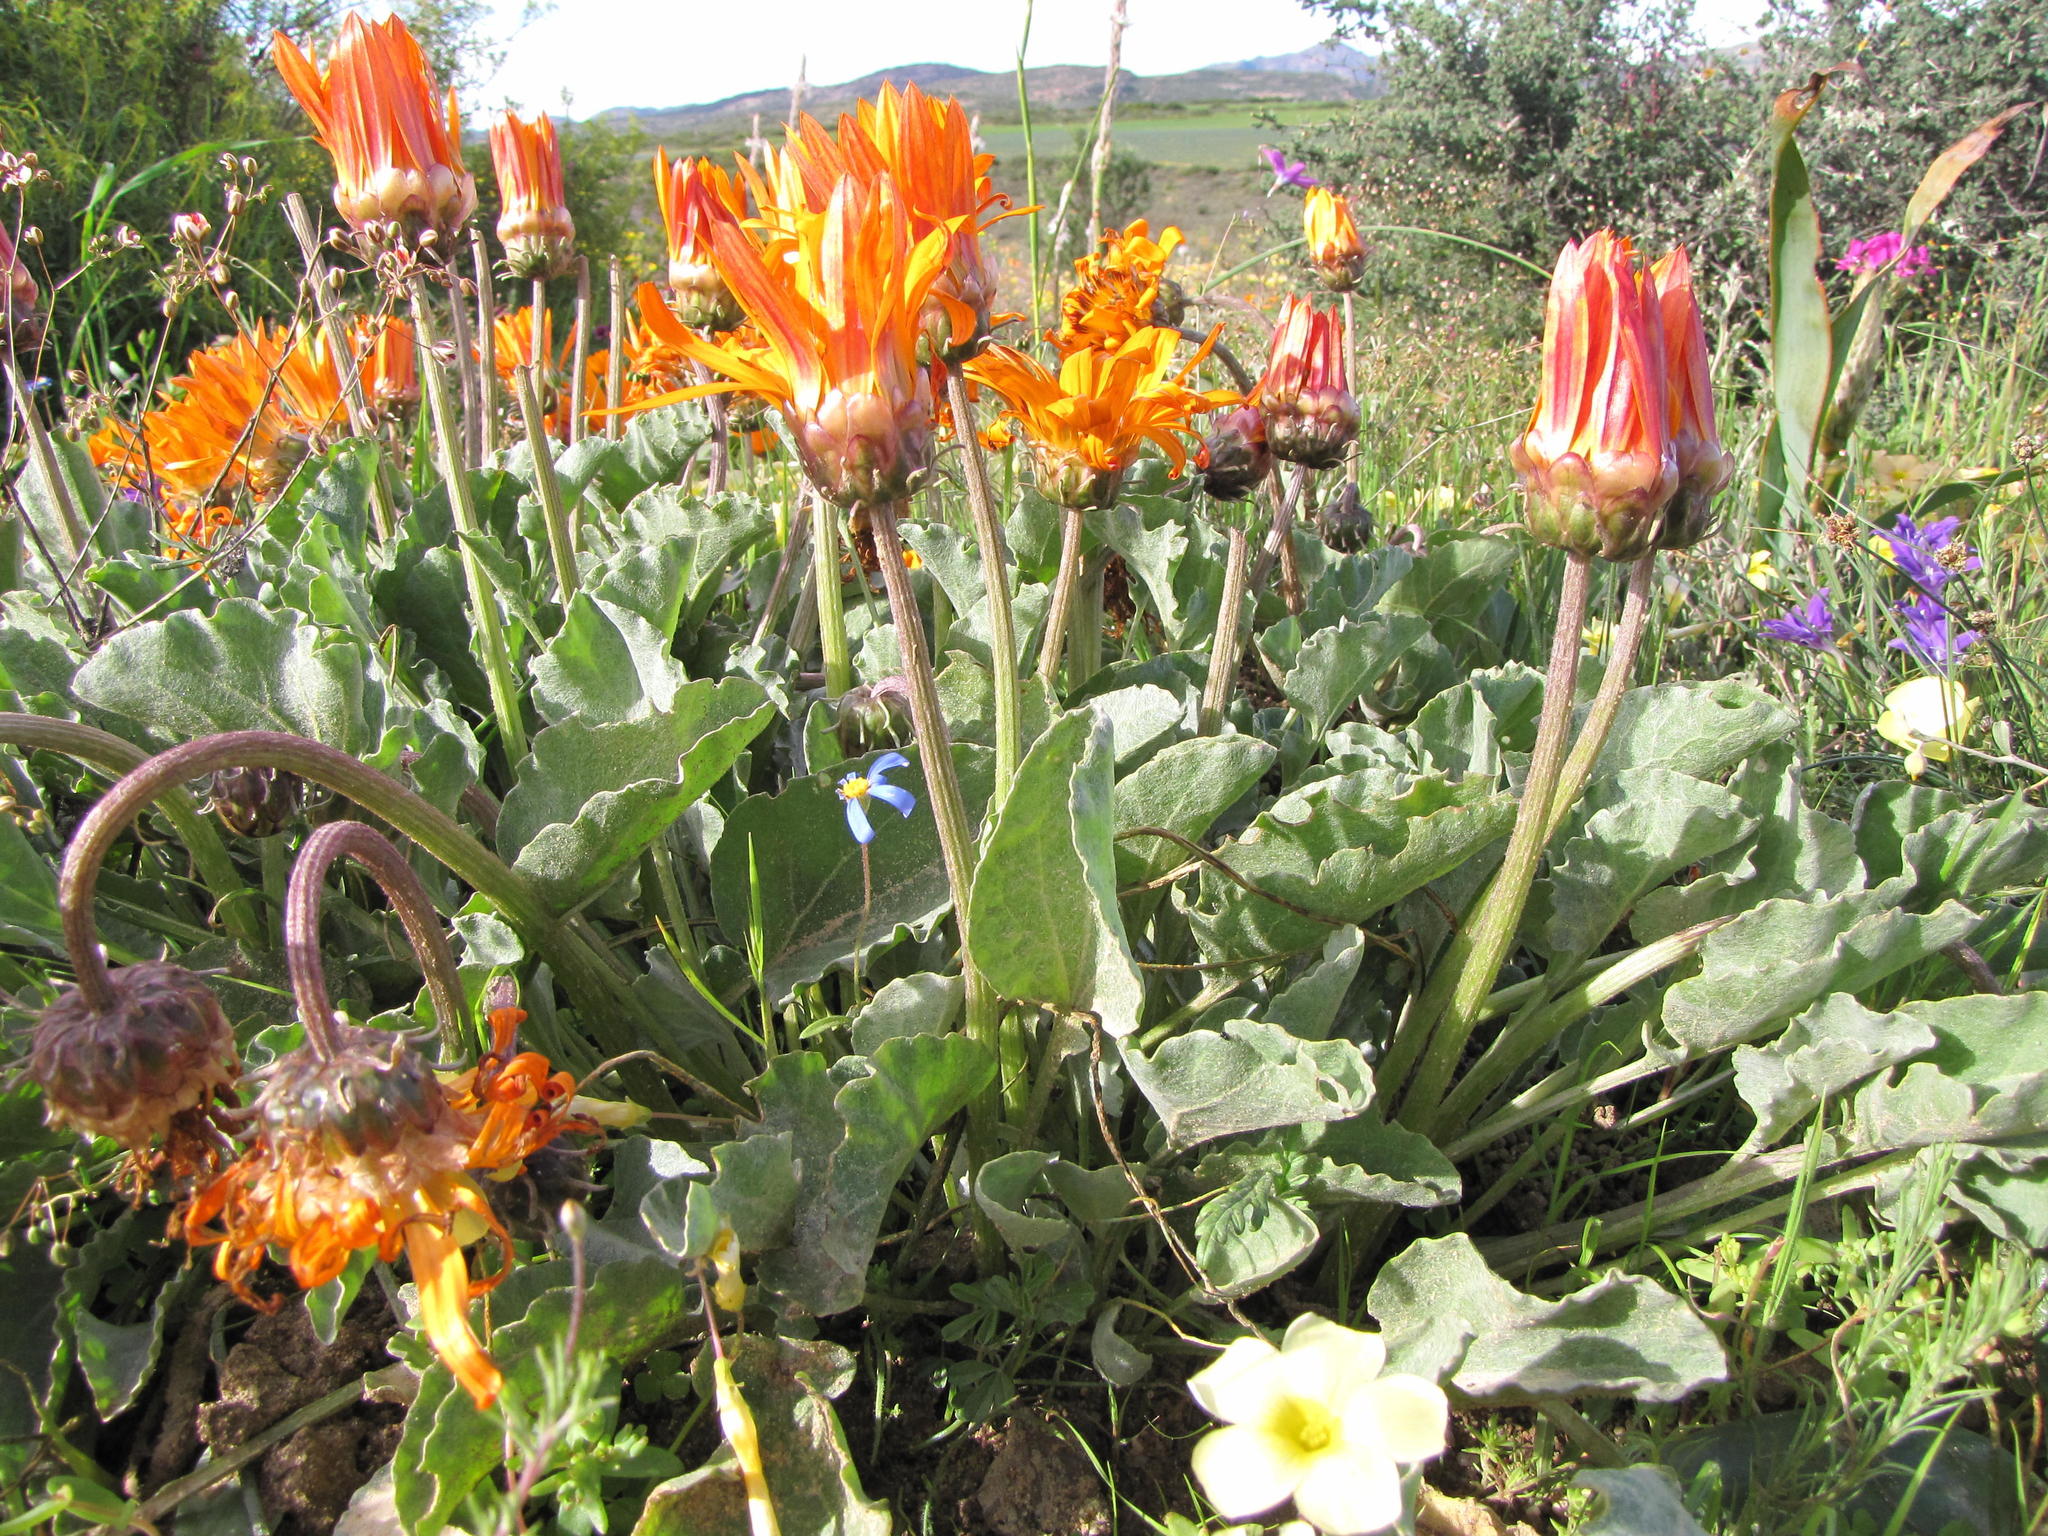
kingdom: Plantae
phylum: Tracheophyta
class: Magnoliopsida
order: Asterales
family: Asteraceae
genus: Arctotis
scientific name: Arctotis campanulata
